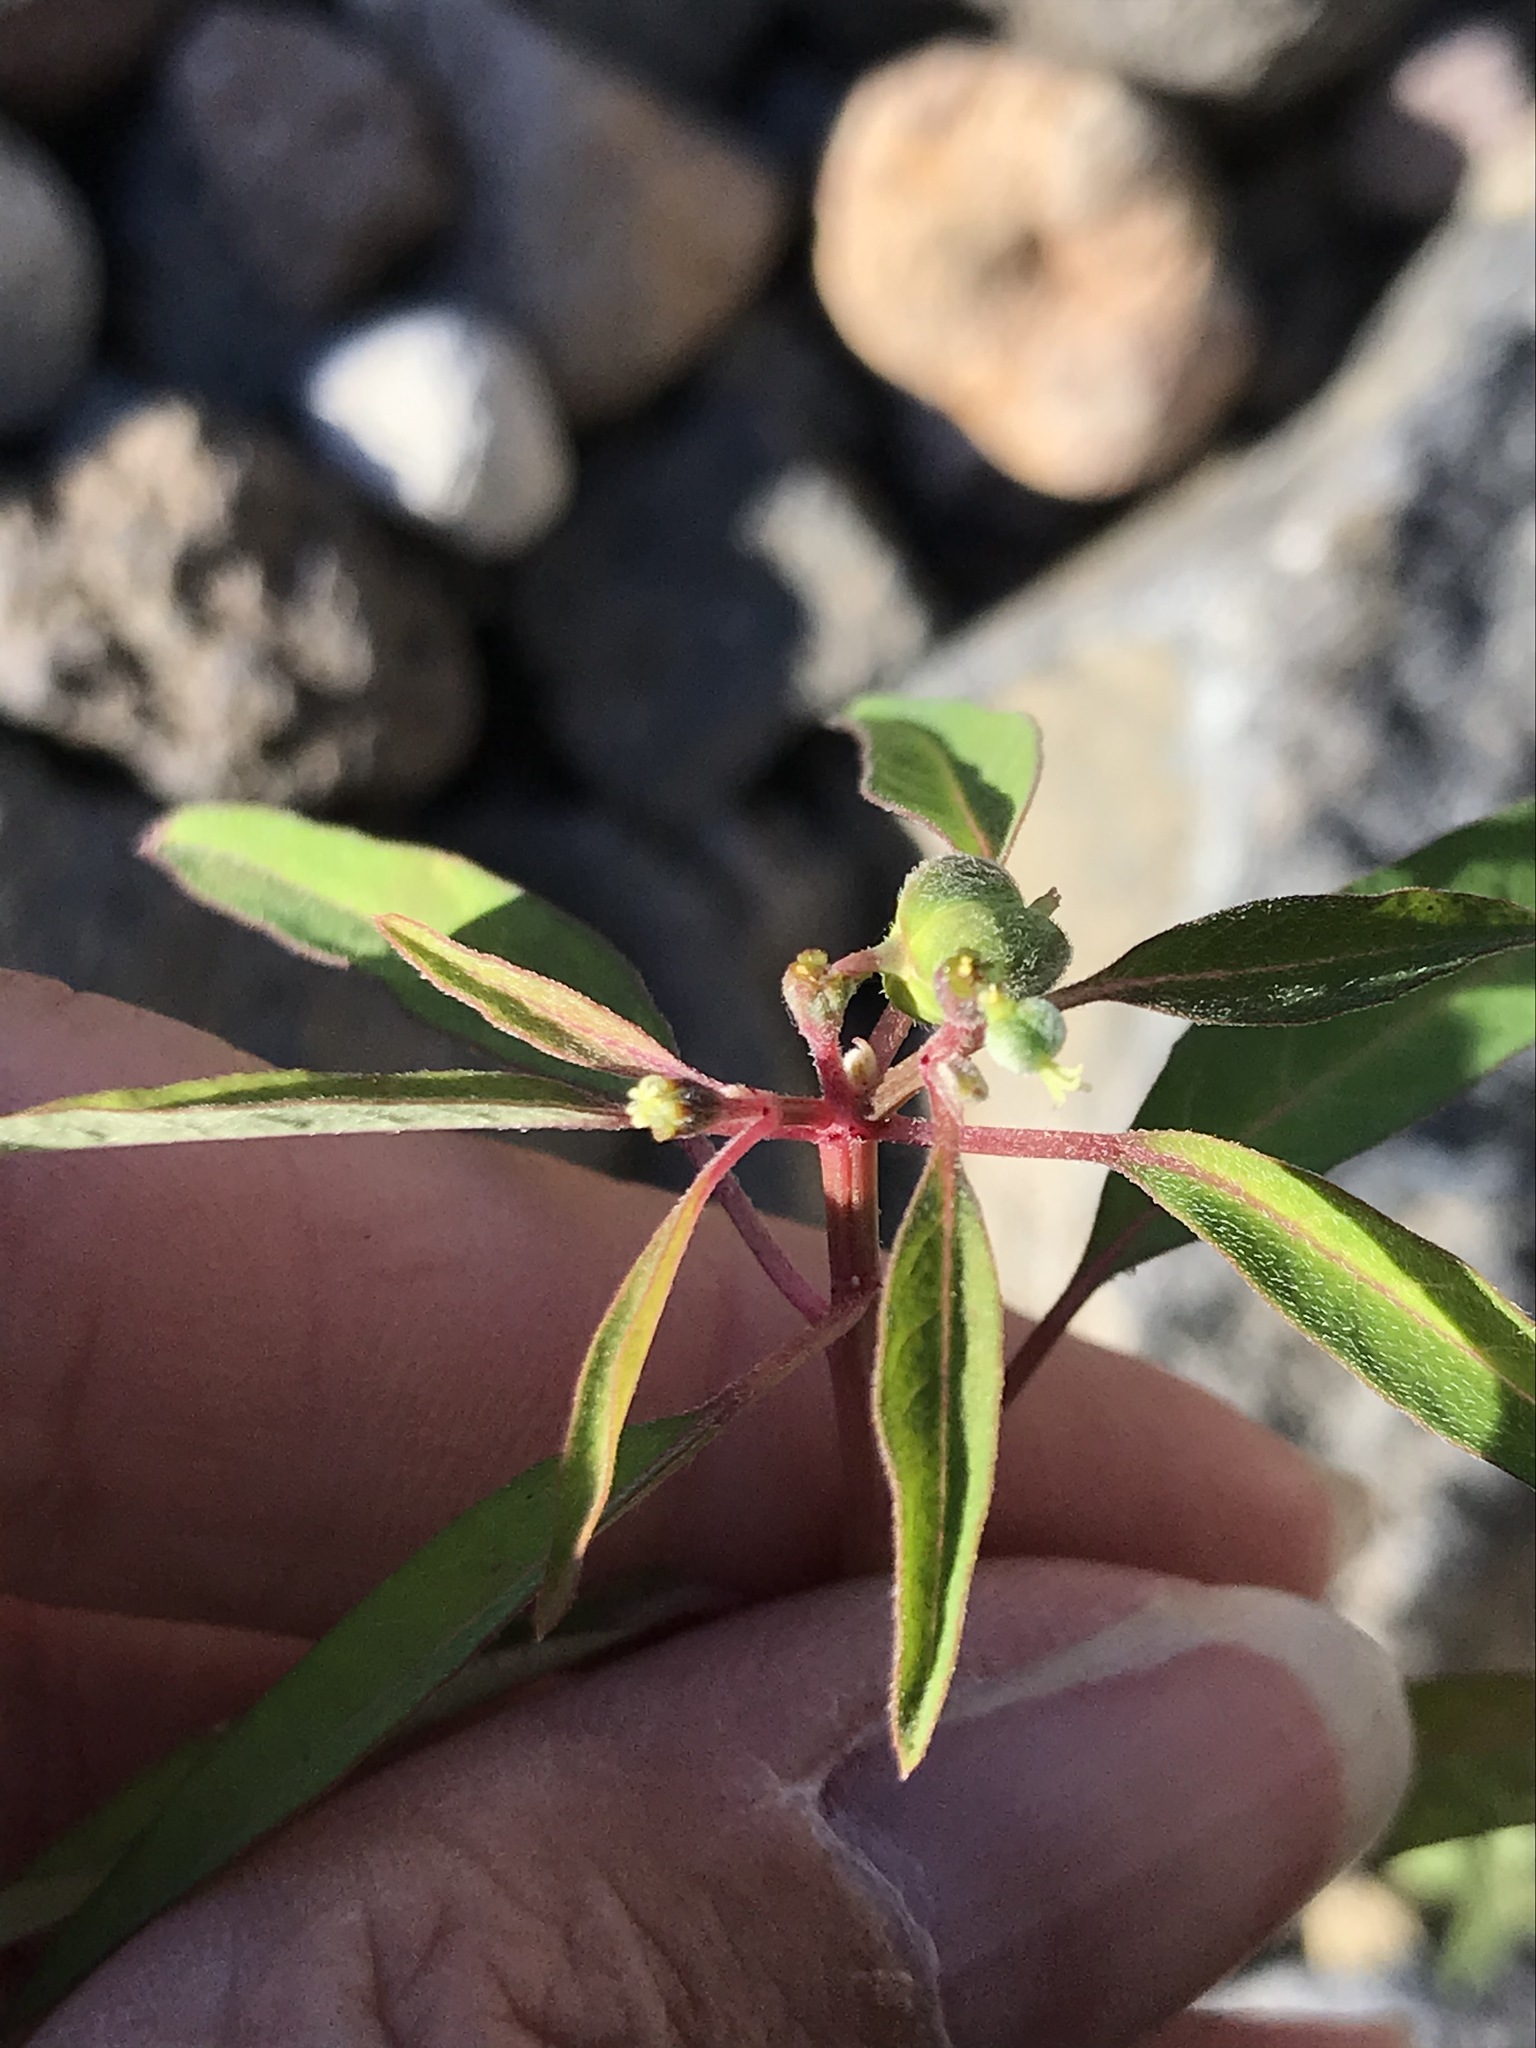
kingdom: Plantae
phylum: Tracheophyta
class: Magnoliopsida
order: Malpighiales
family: Euphorbiaceae
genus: Euphorbia
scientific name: Euphorbia chersonesa
